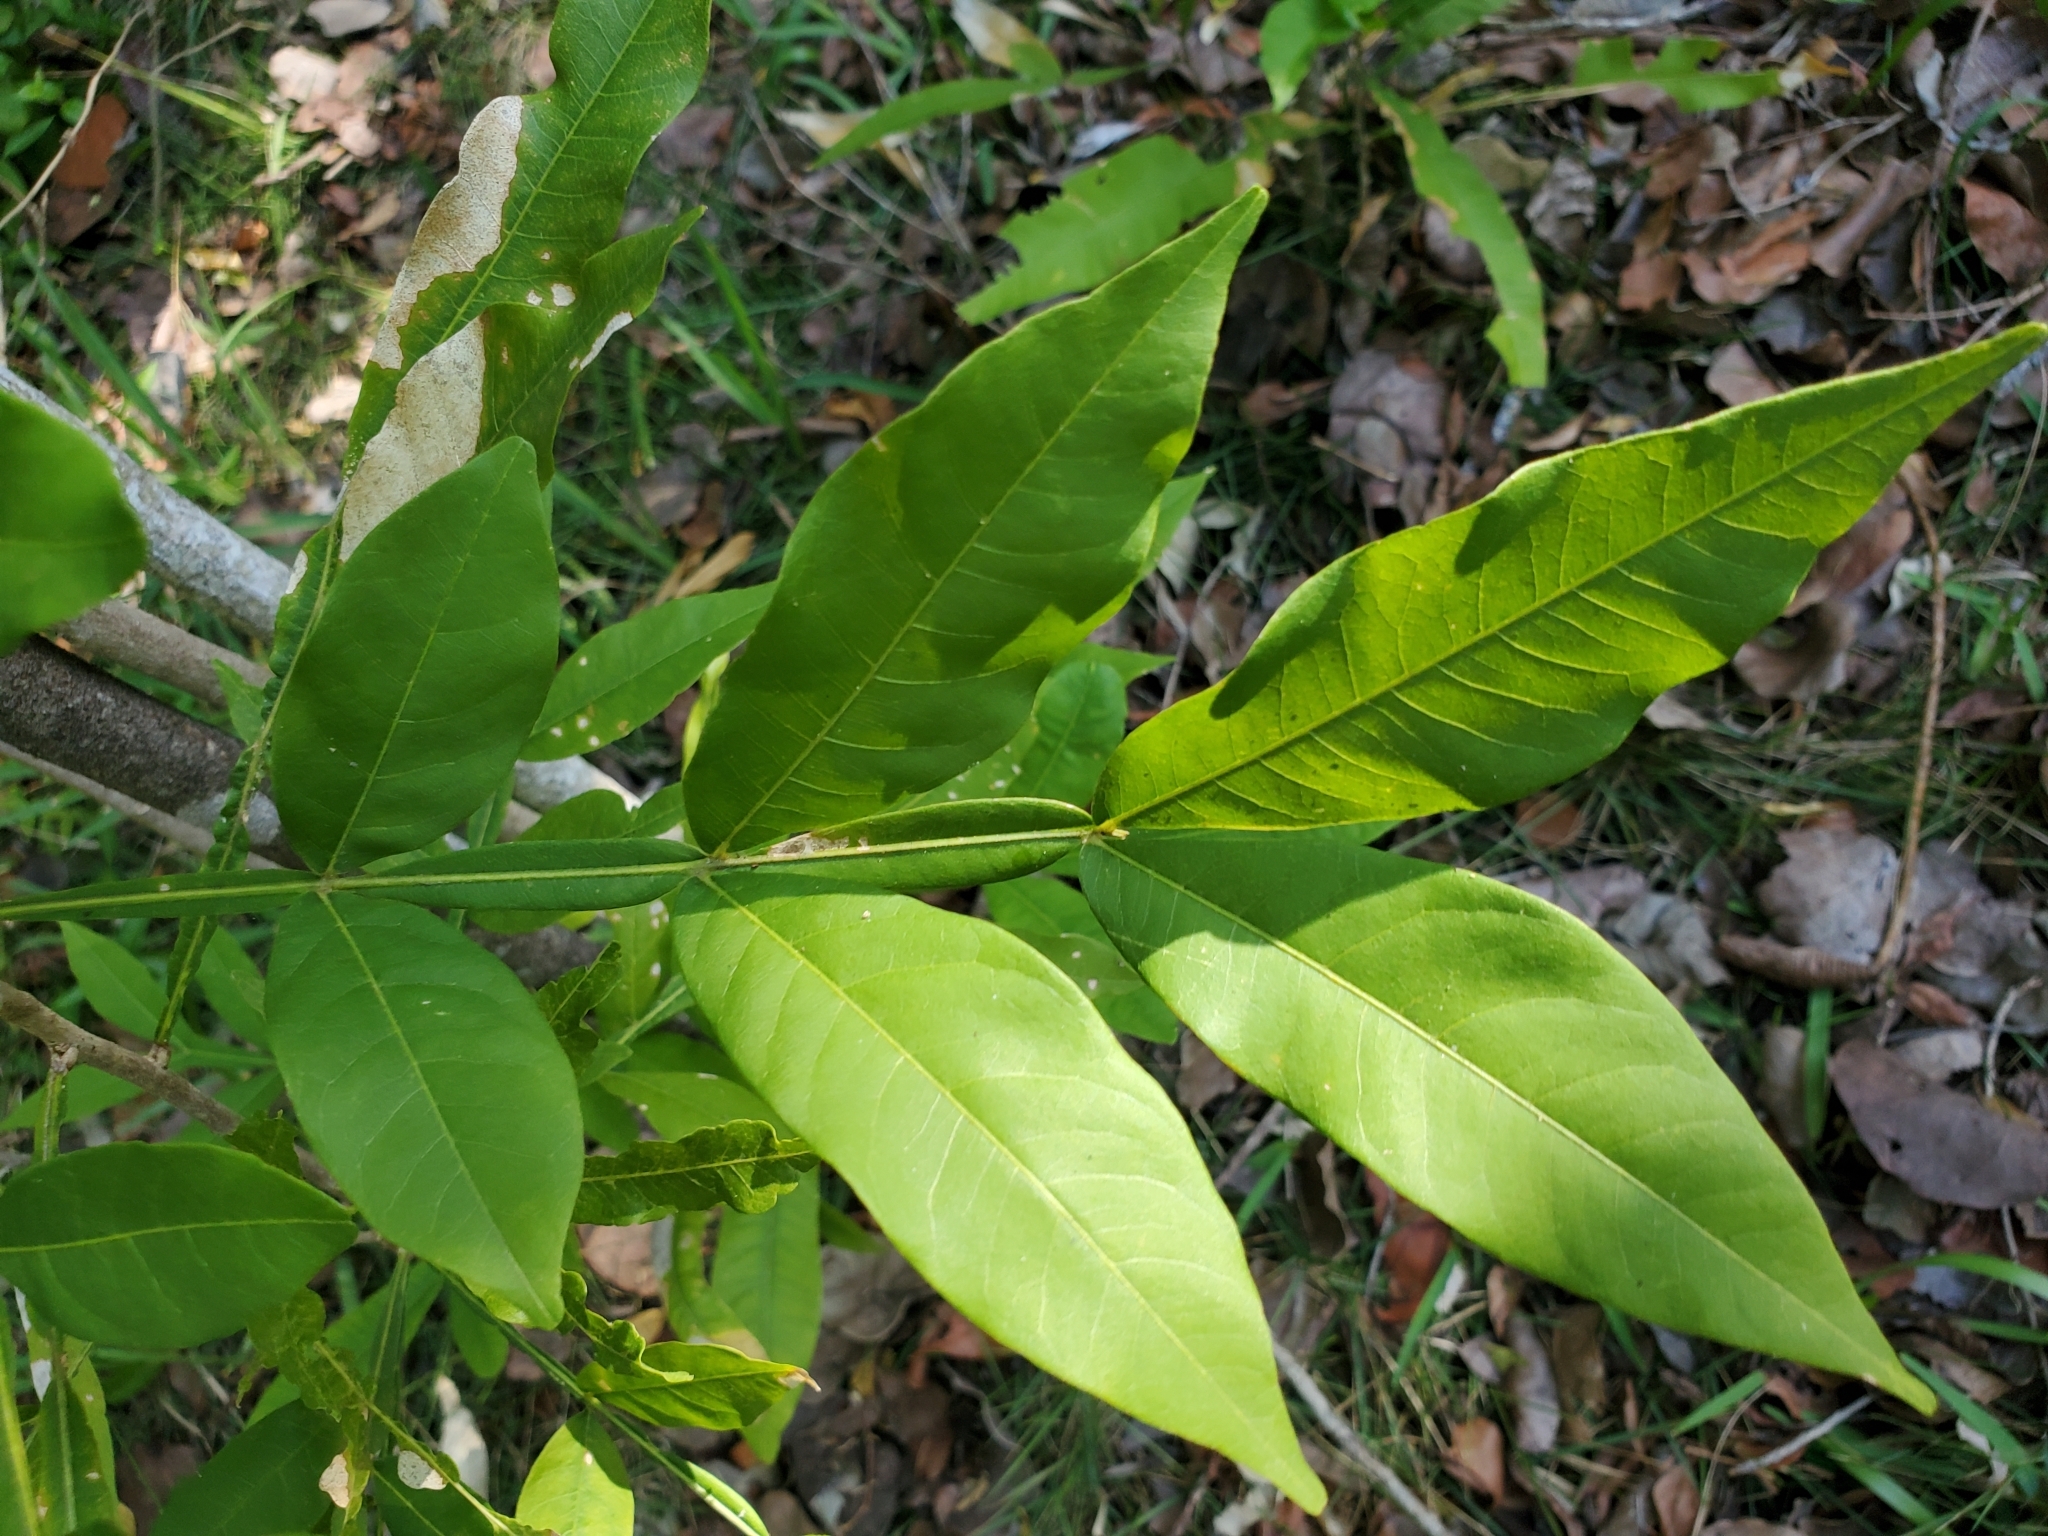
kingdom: Plantae
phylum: Tracheophyta
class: Magnoliopsida
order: Sapindales
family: Sapindaceae
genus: Sapindus
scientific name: Sapindus saponaria
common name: Wingleaf soapberry
